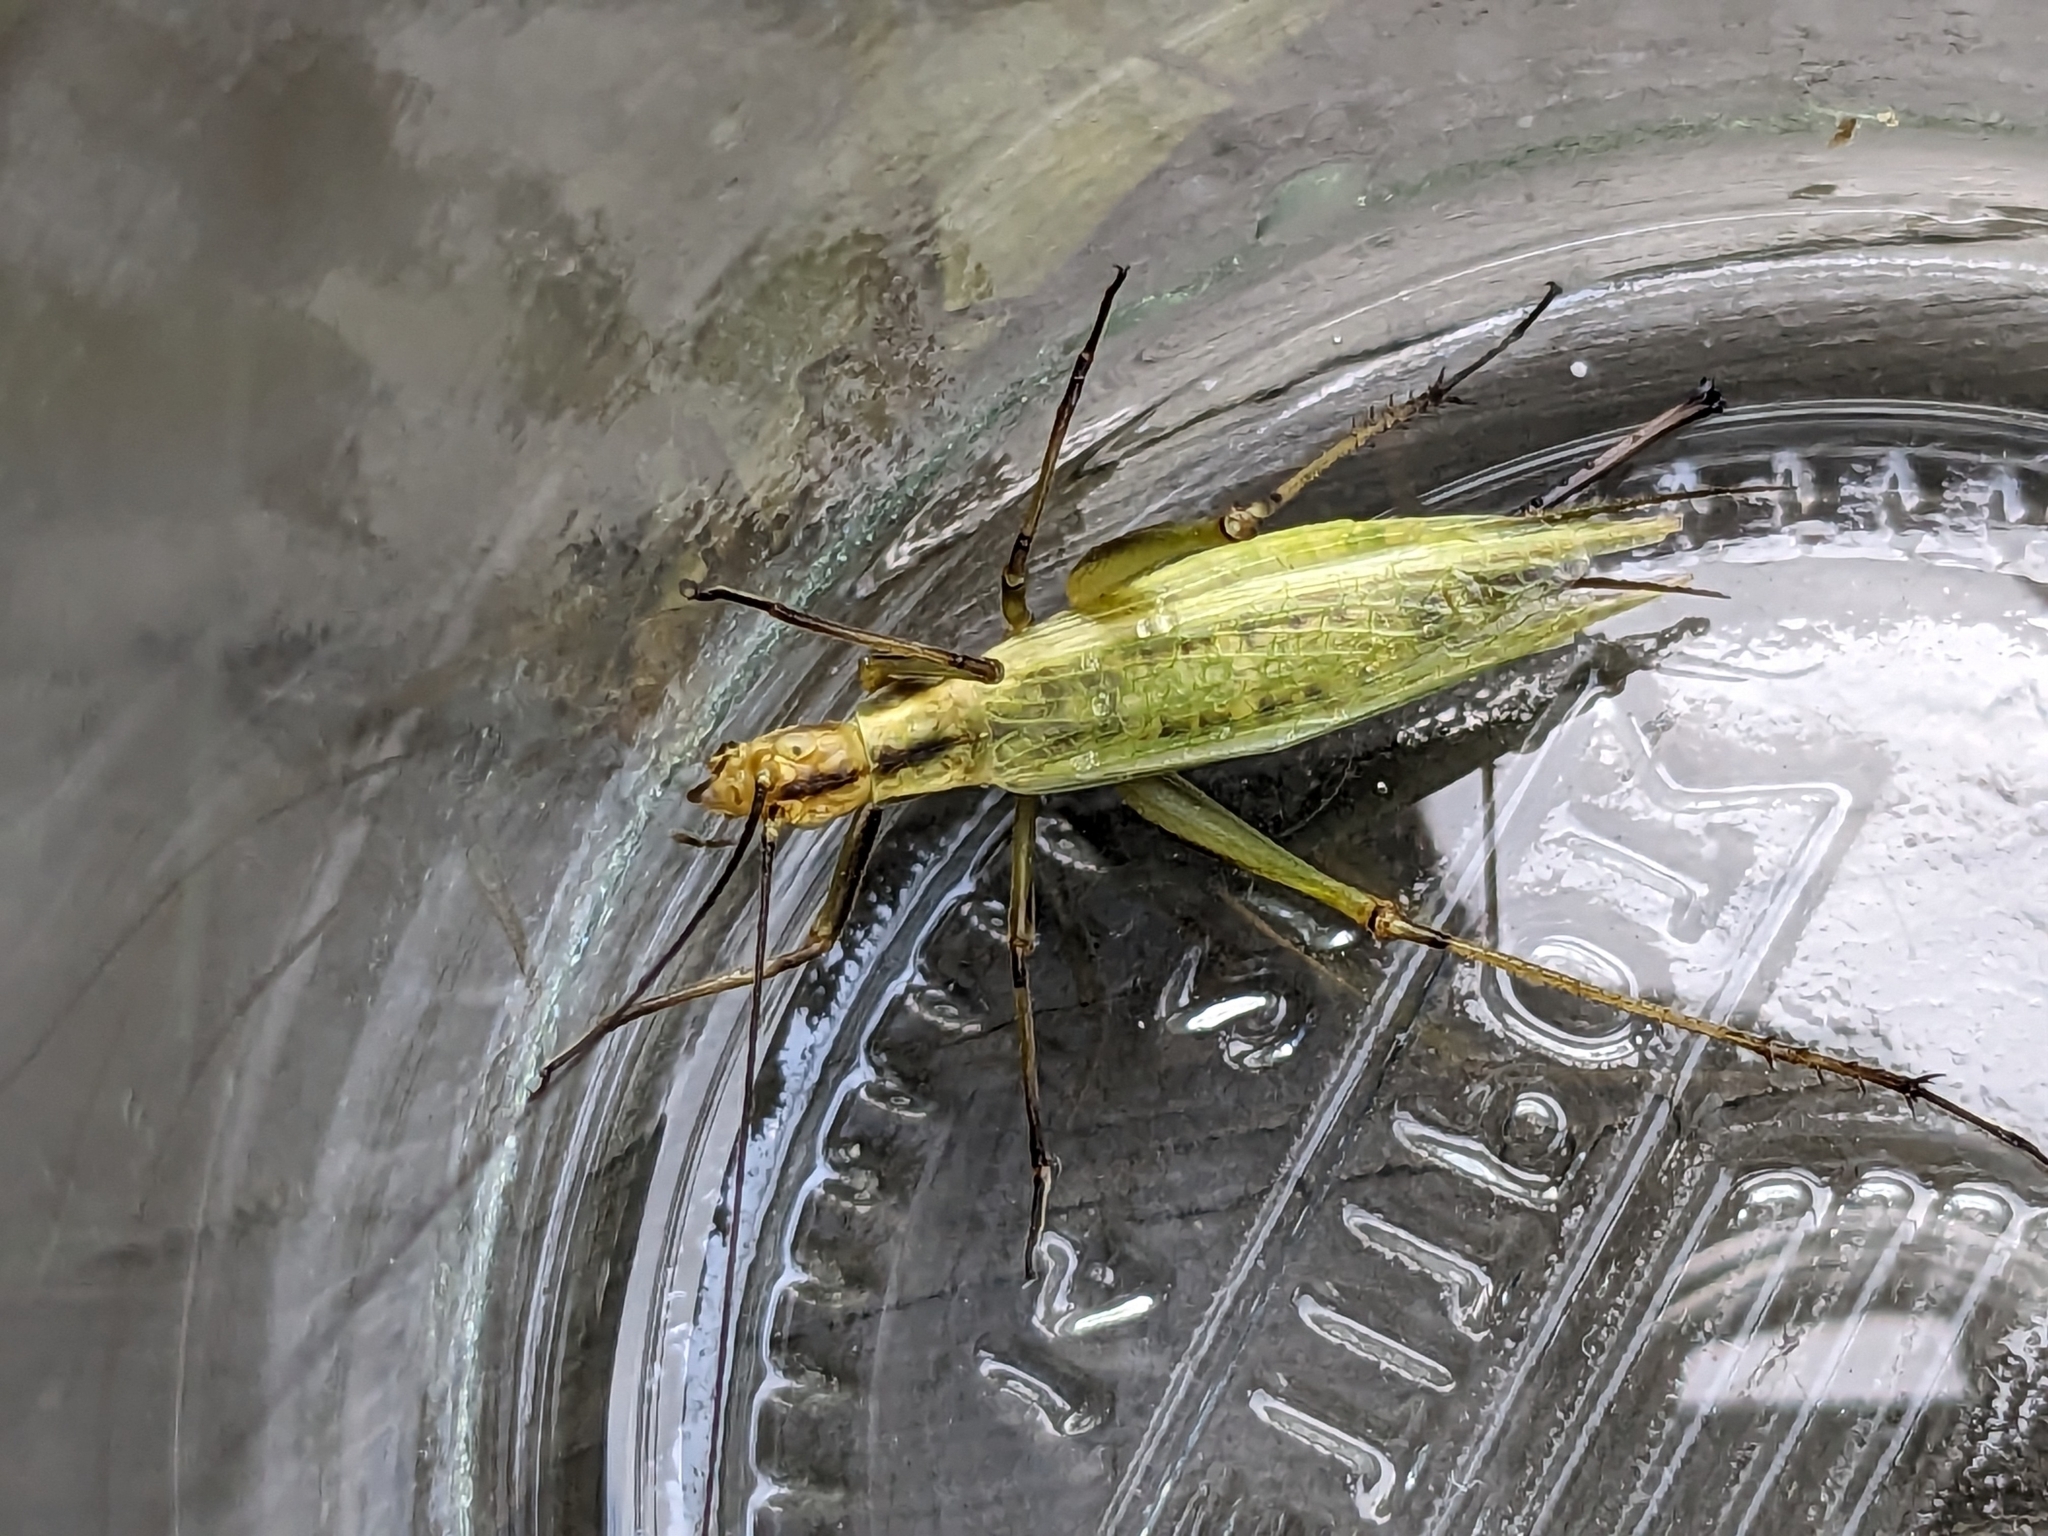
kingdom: Animalia
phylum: Arthropoda
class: Insecta
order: Orthoptera
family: Gryllidae
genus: Oecanthus
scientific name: Oecanthus nigricornis
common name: Black-horned tree cricket
